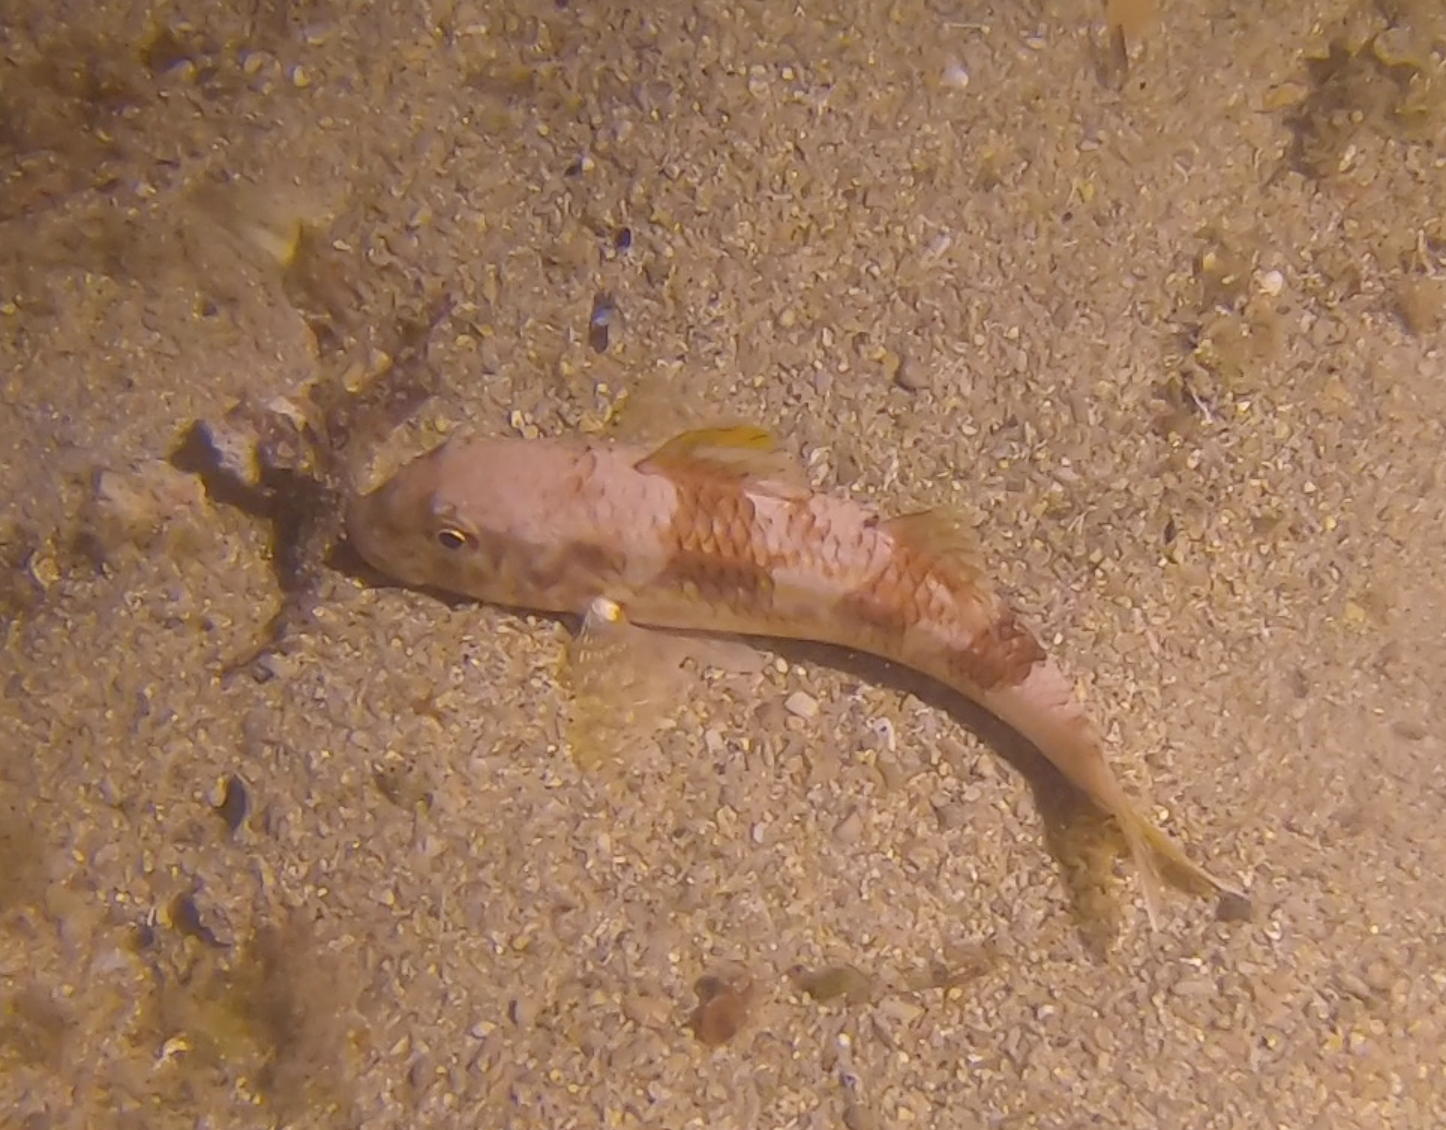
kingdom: Animalia
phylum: Chordata
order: Perciformes
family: Mullidae
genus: Mullus
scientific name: Mullus surmuletus
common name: Red mullet
